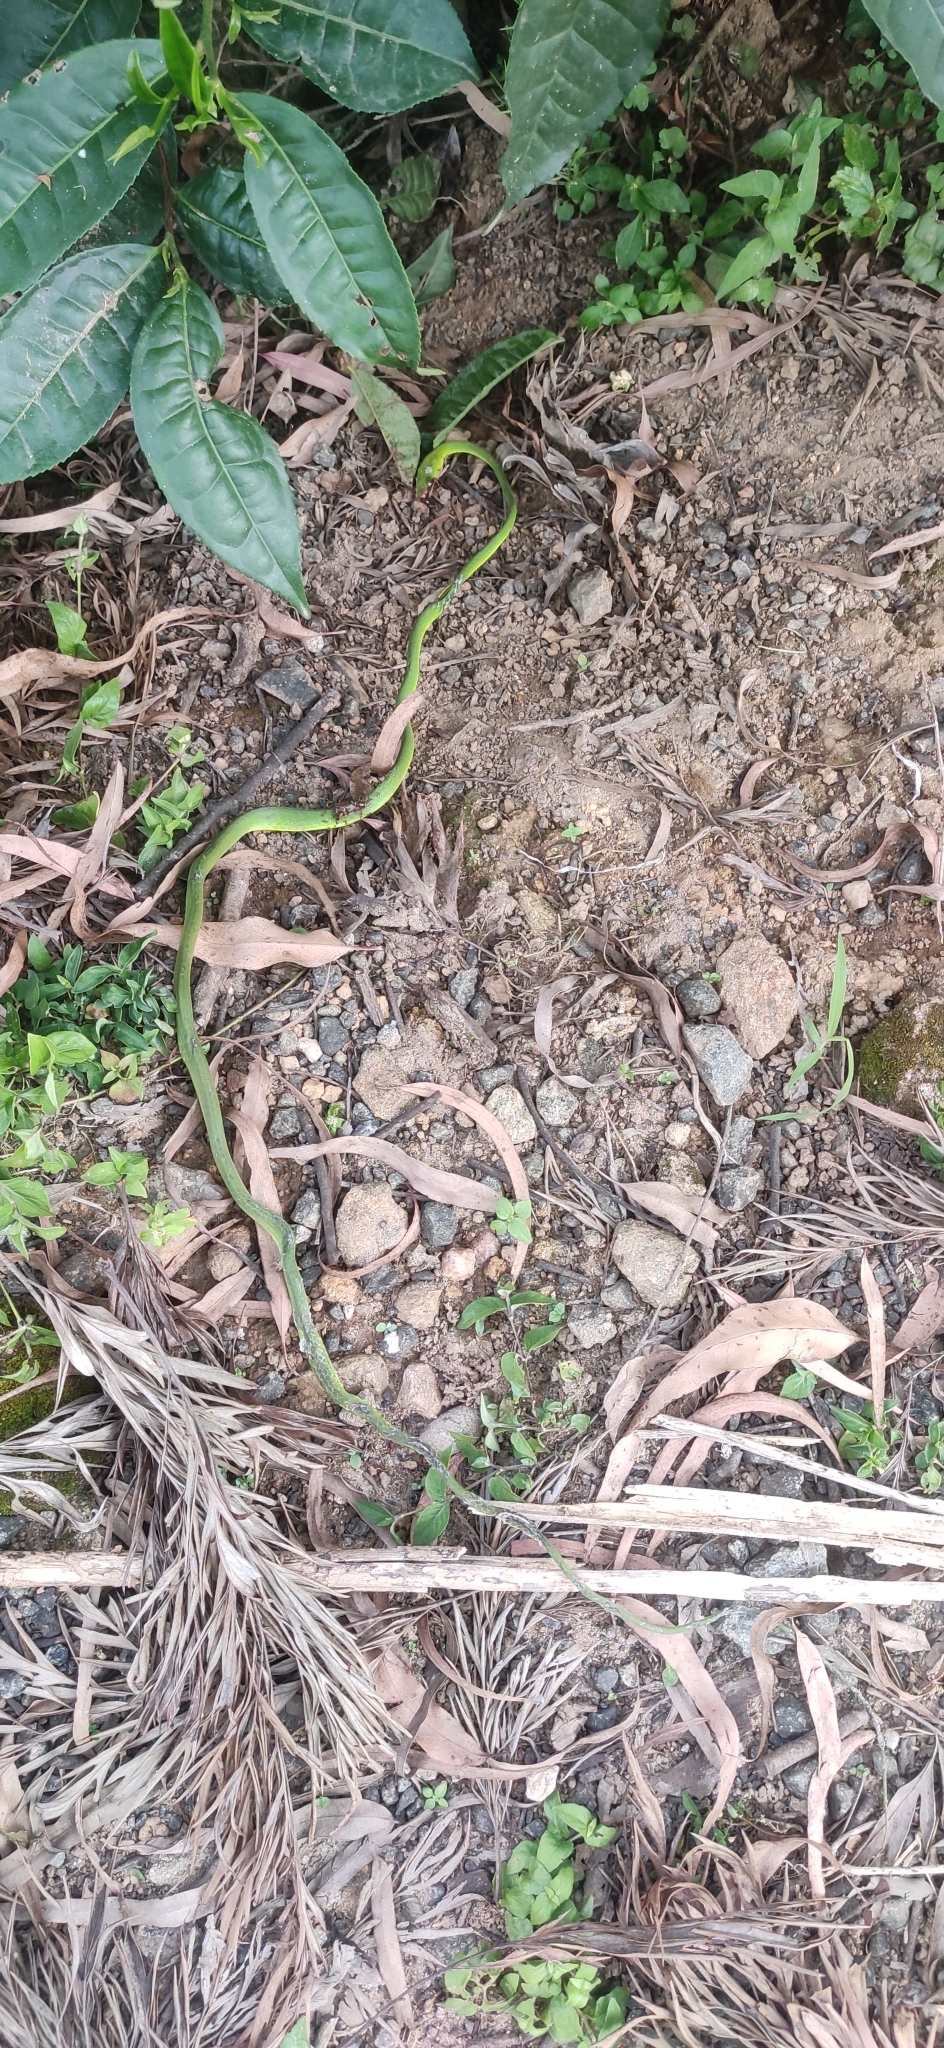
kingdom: Animalia
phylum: Chordata
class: Squamata
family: Colubridae
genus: Ahaetulla
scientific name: Ahaetulla isabellina
